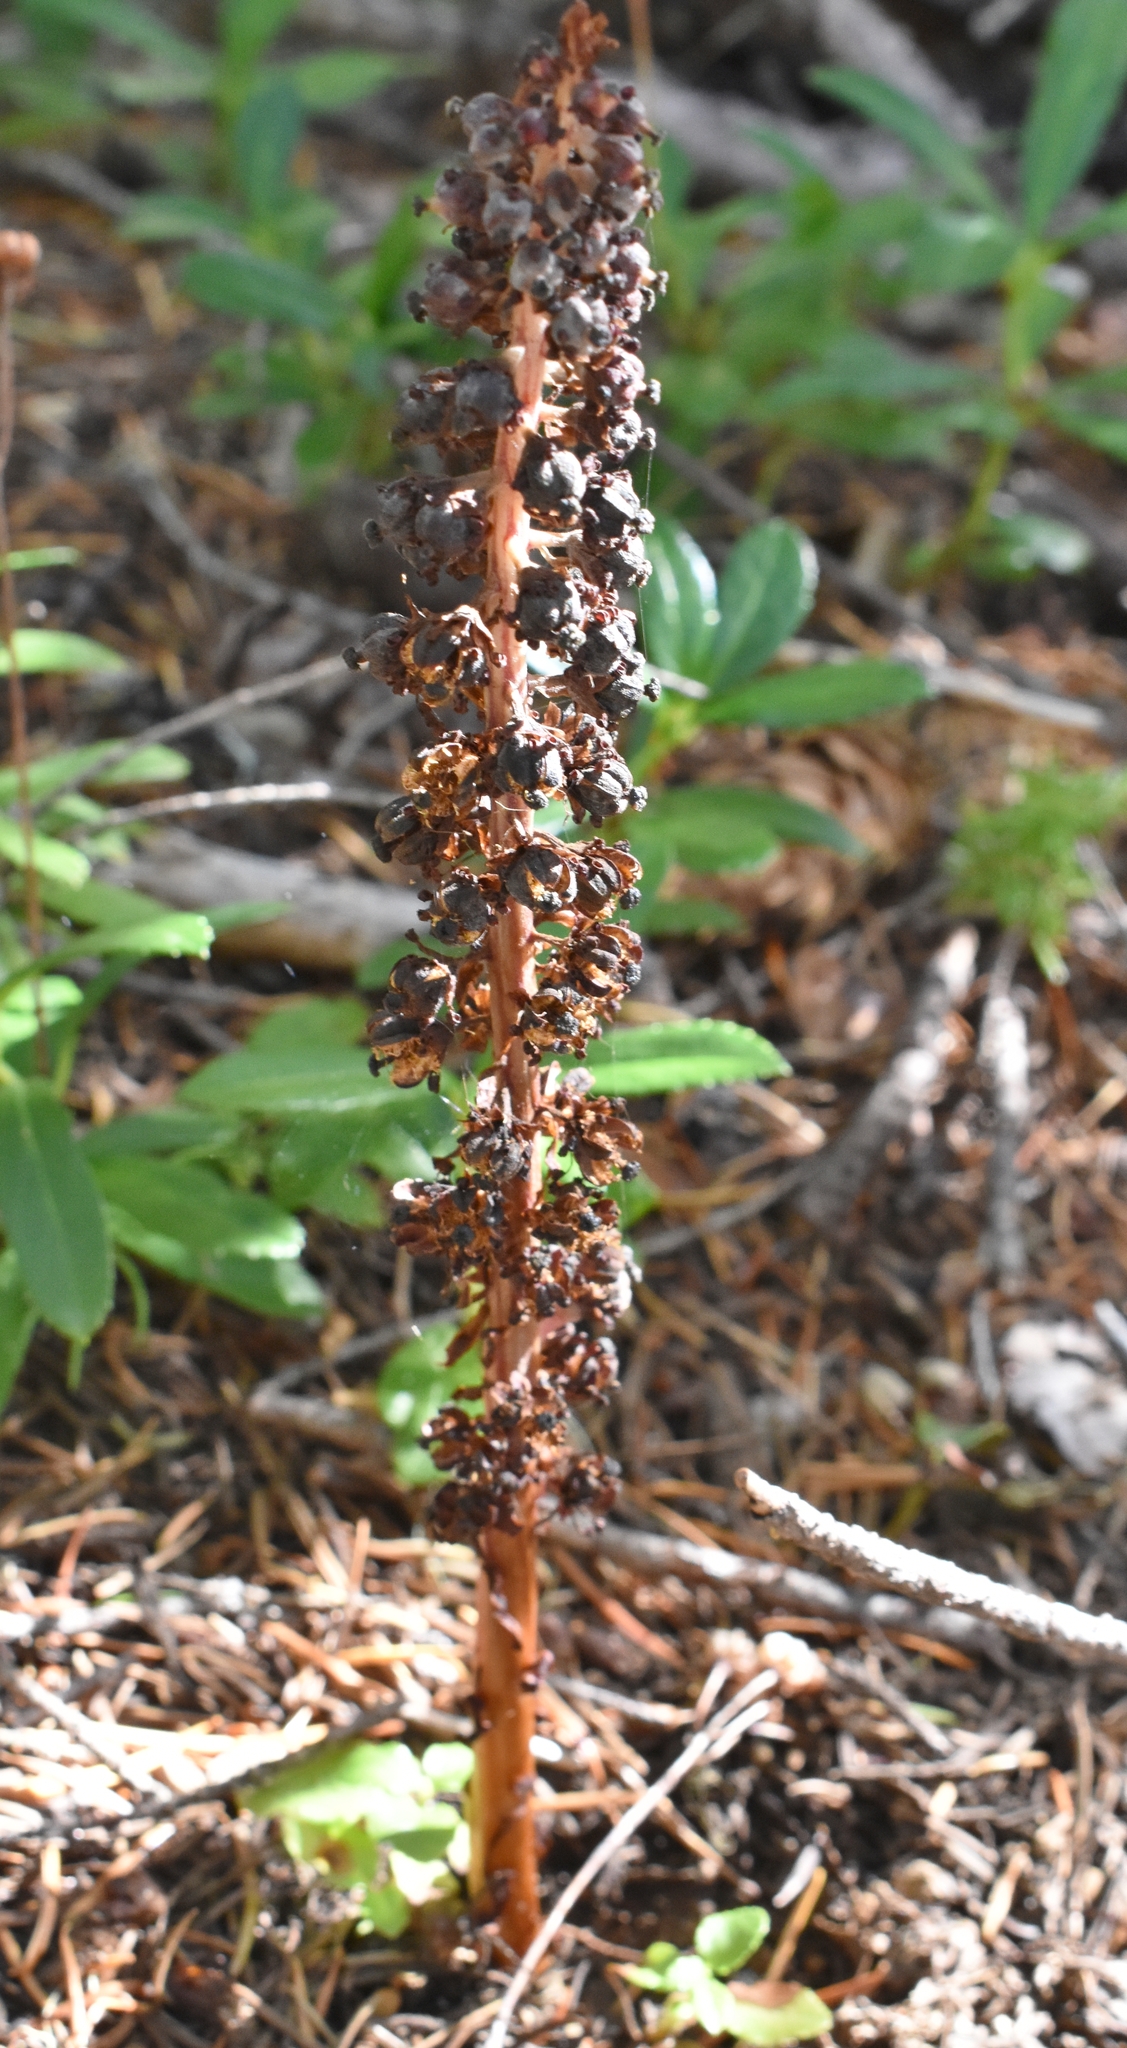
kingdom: Plantae
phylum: Tracheophyta
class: Magnoliopsida
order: Ericales
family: Ericaceae
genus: Allotropa
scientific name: Allotropa virgata
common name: Candy-striped allotropa
